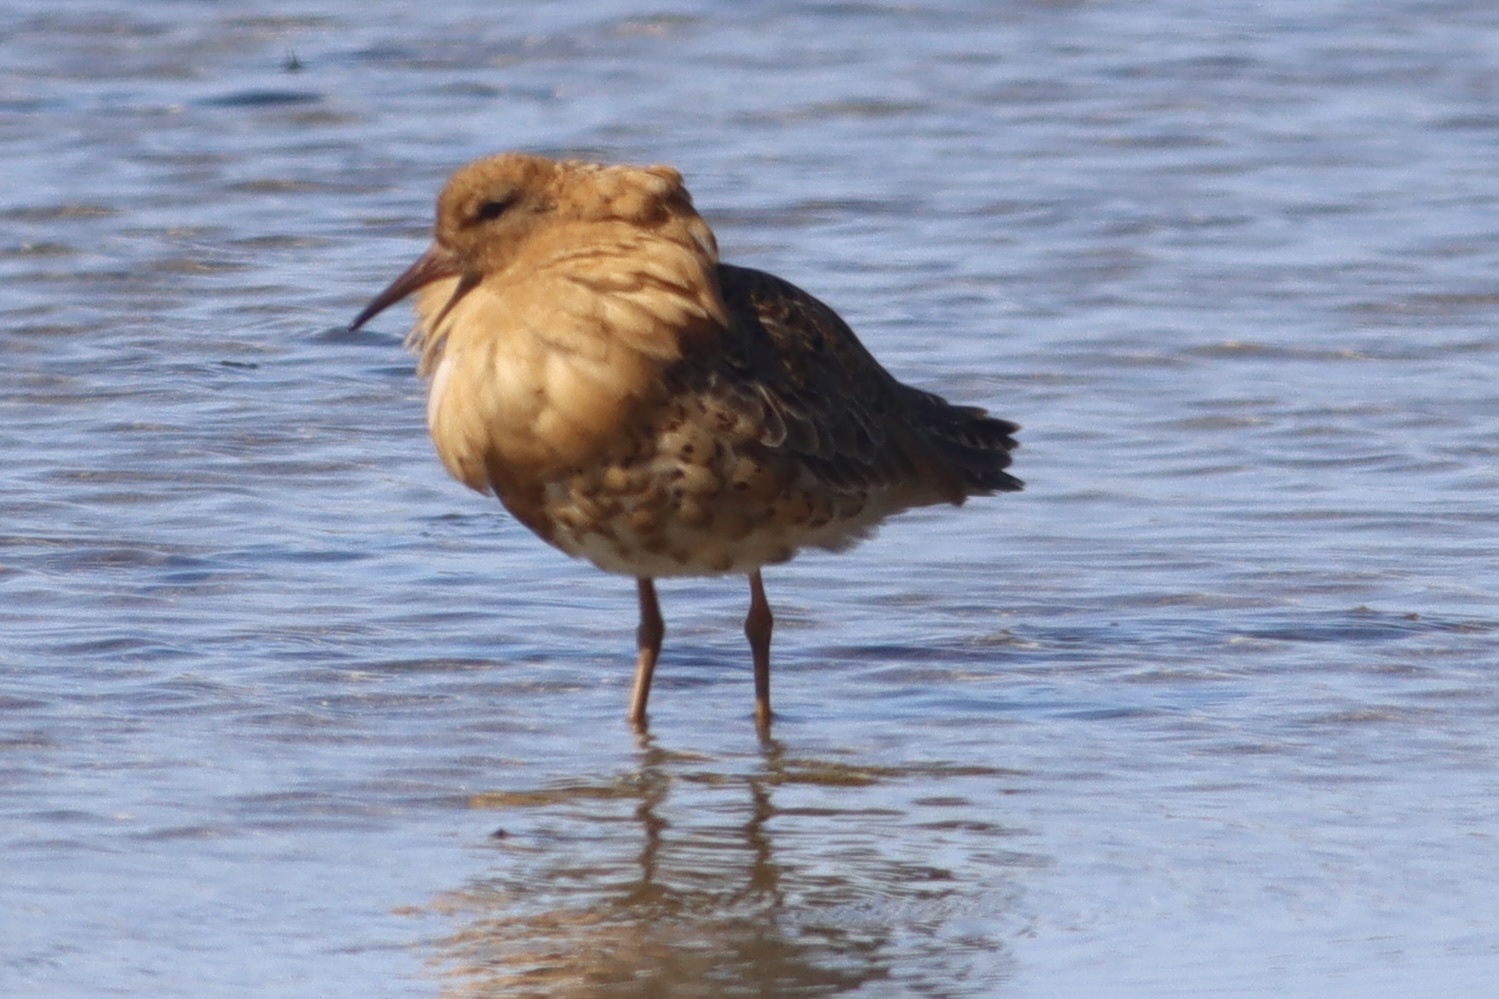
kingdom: Animalia
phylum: Chordata
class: Aves
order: Charadriiformes
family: Scolopacidae
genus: Calidris
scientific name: Calidris pugnax
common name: Ruff
